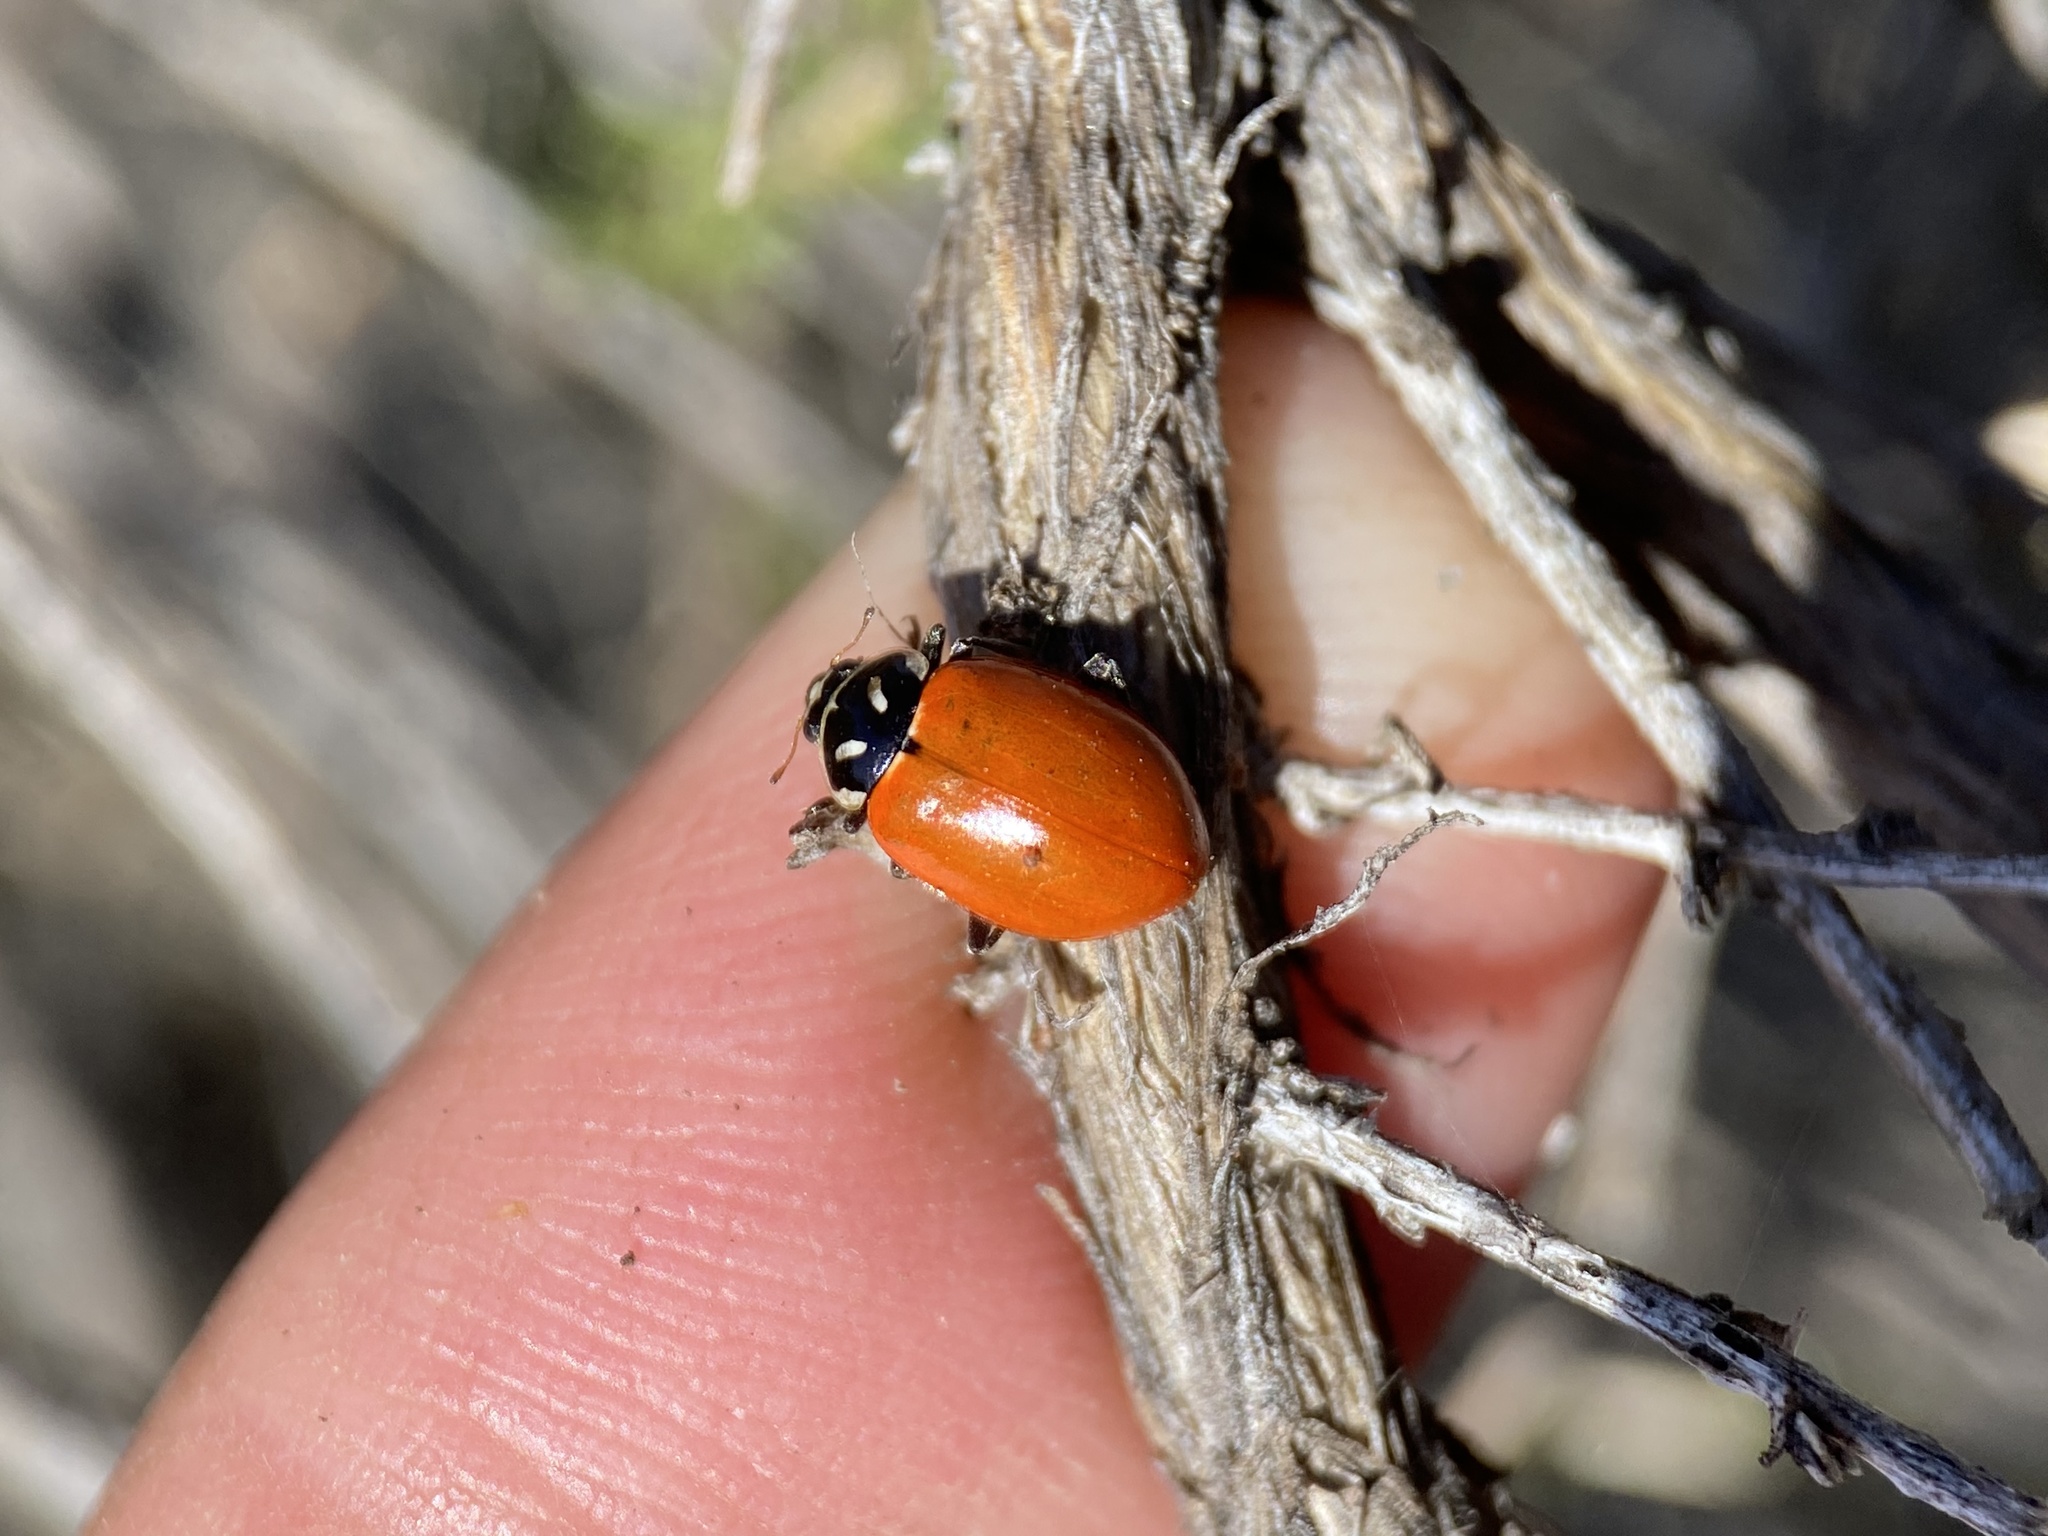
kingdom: Animalia
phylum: Arthropoda
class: Insecta
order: Coleoptera
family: Coccinellidae
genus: Hippodamia
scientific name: Hippodamia convergens
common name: Convergent lady beetle
